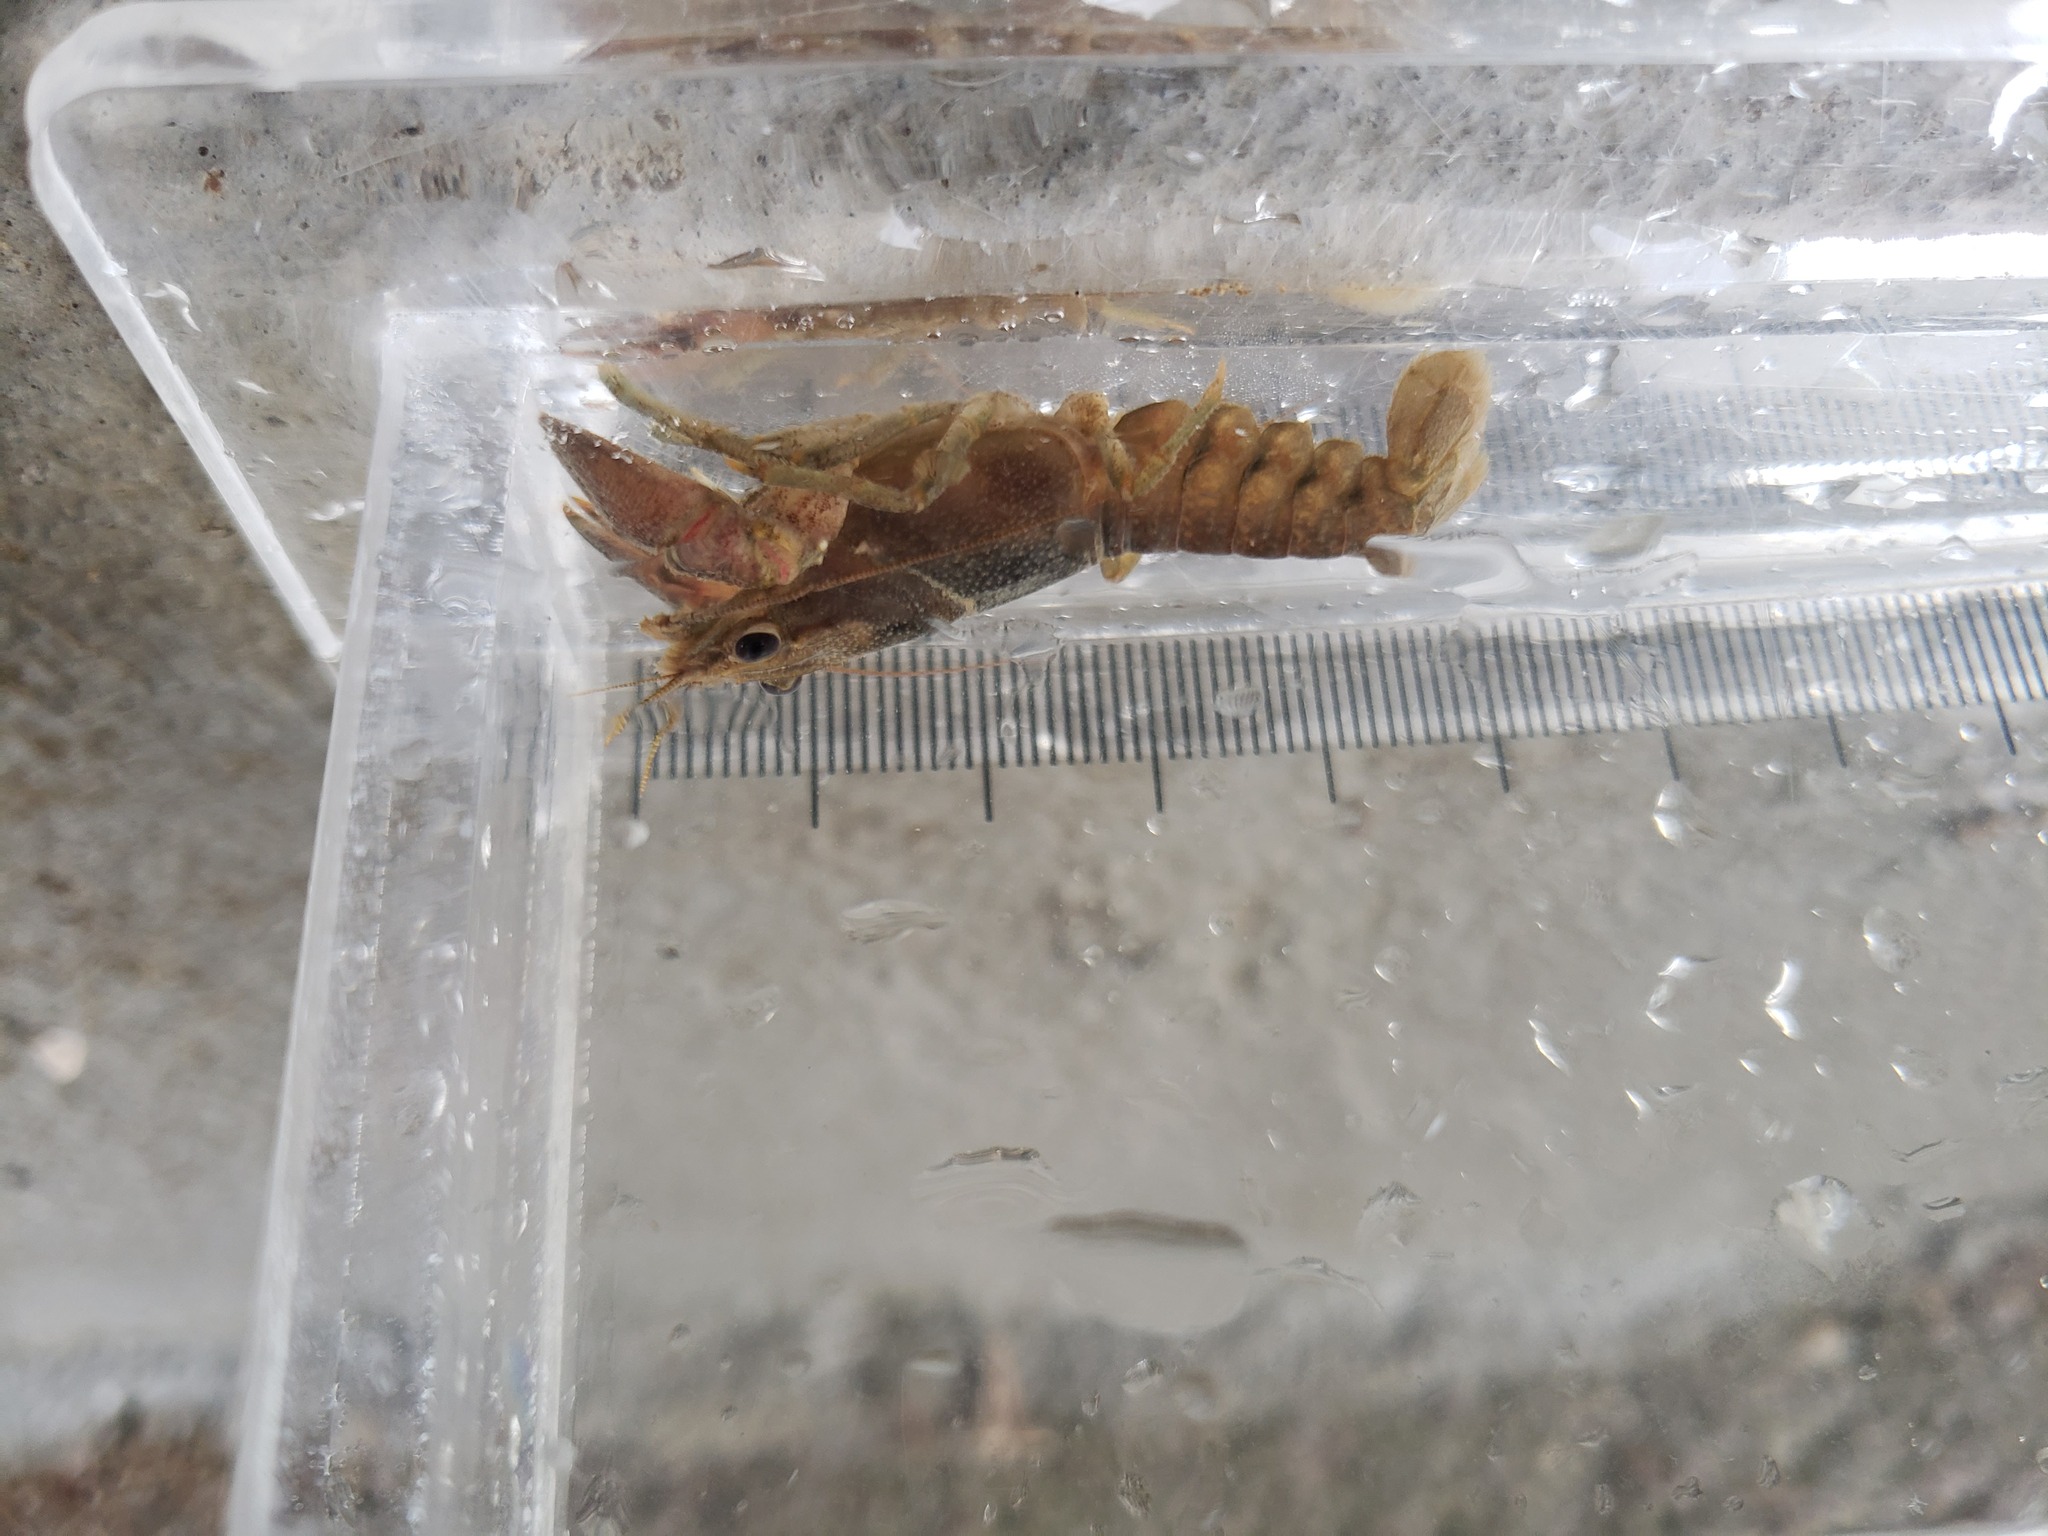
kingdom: Animalia
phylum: Arthropoda
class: Malacostraca
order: Decapoda
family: Cambaridae
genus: Faxonius
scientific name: Faxonius rusticus
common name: Rusty crayfish
